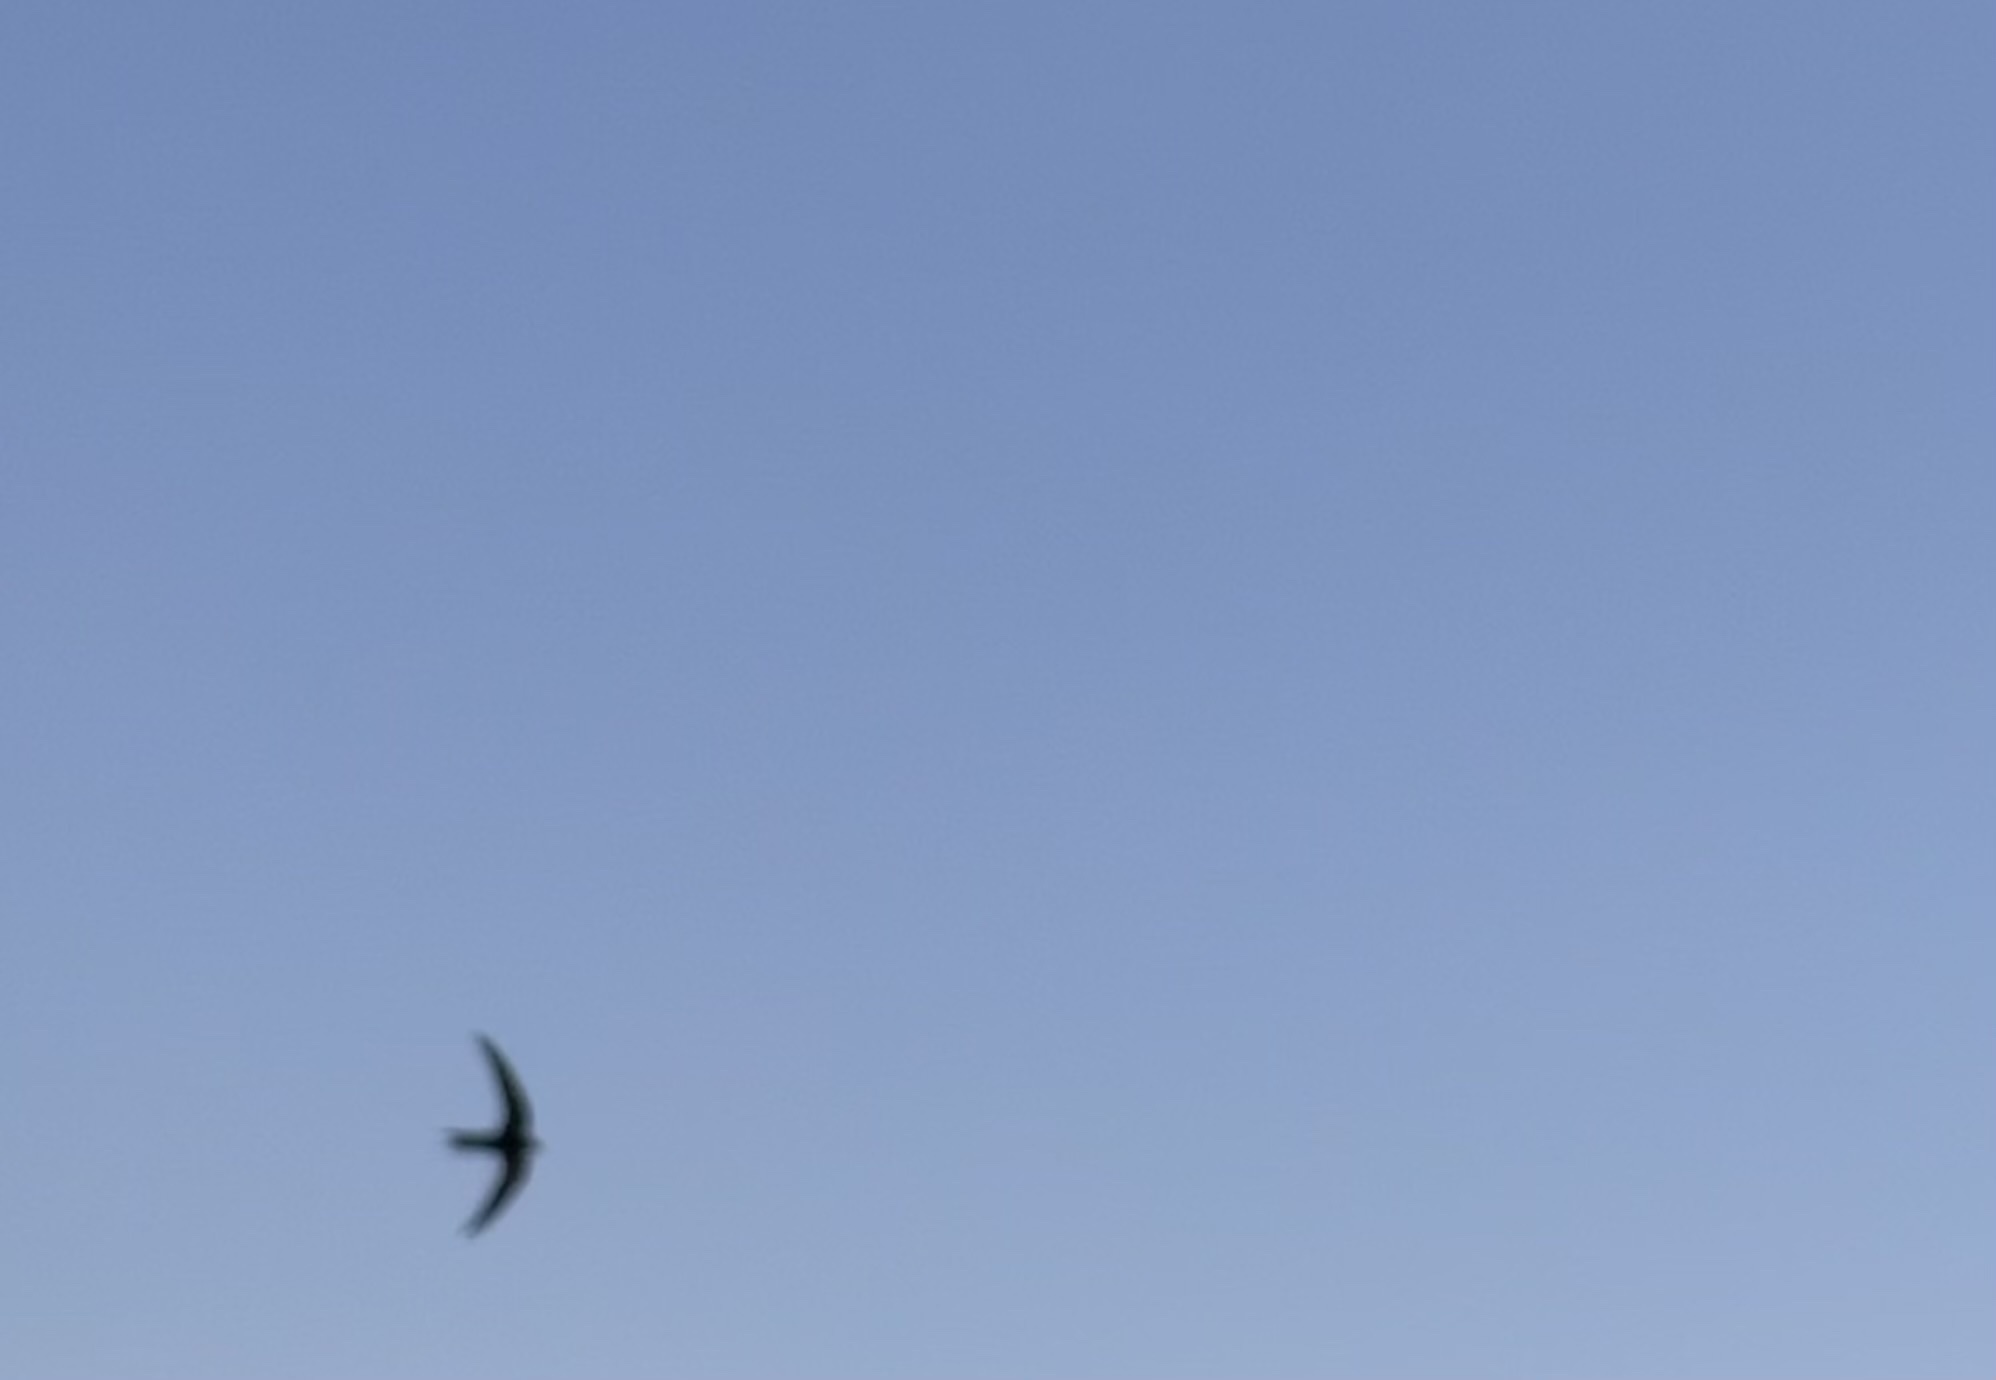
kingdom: Animalia
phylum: Chordata
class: Aves
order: Apodiformes
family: Apodidae
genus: Apus
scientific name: Apus apus
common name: Common swift
